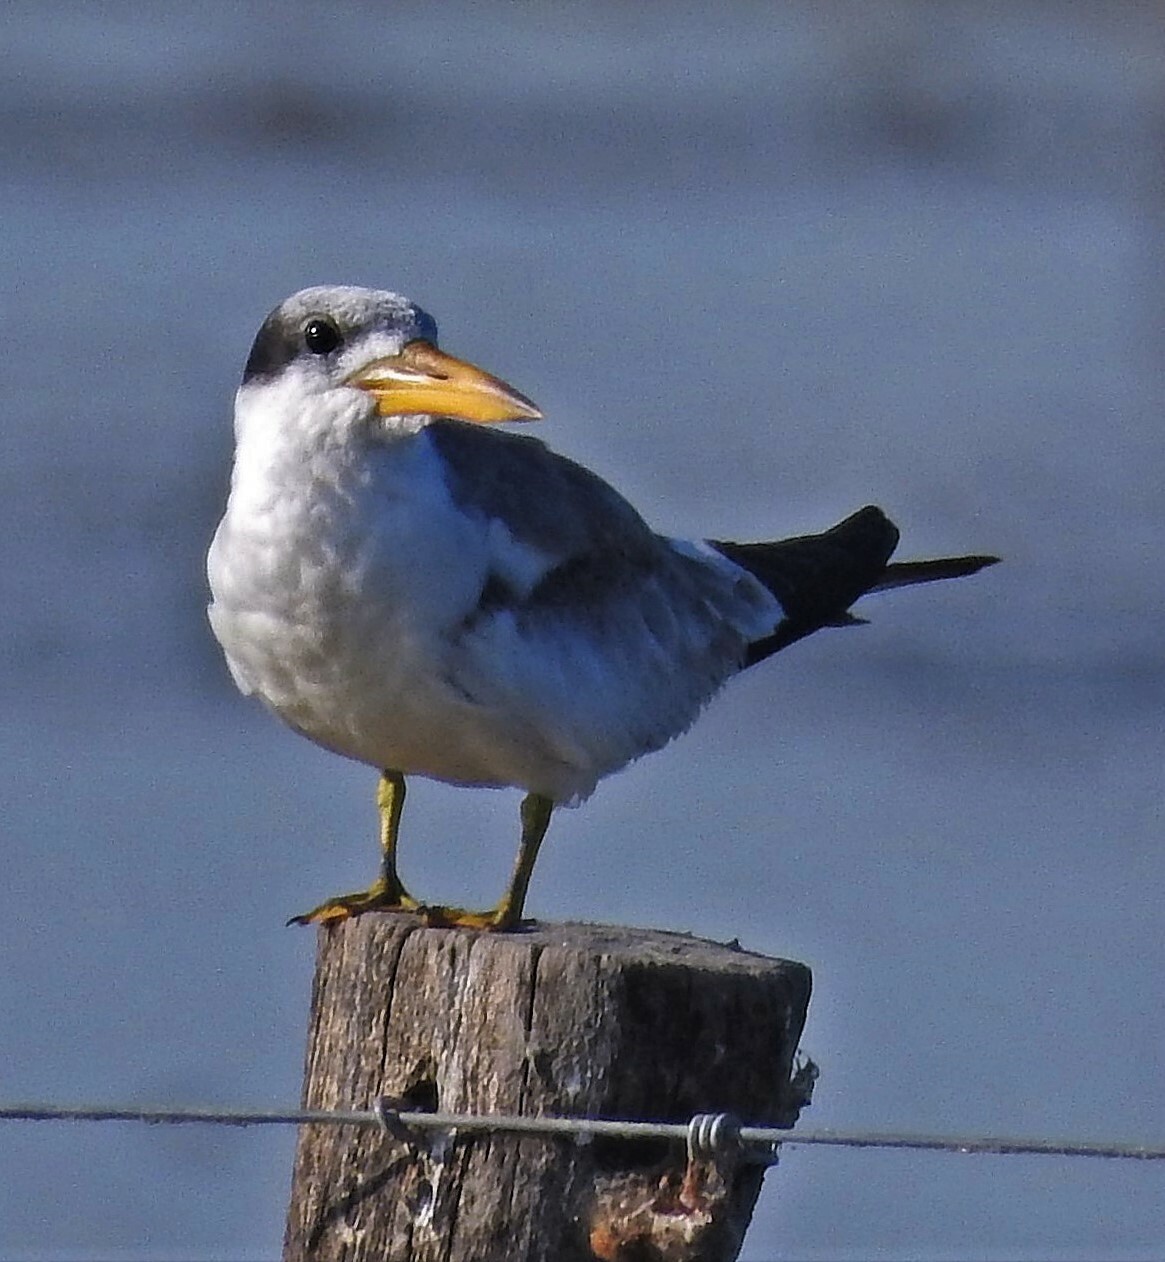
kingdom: Animalia
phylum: Chordata
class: Aves
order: Charadriiformes
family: Laridae
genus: Phaetusa
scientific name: Phaetusa simplex
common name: Large-billed tern
